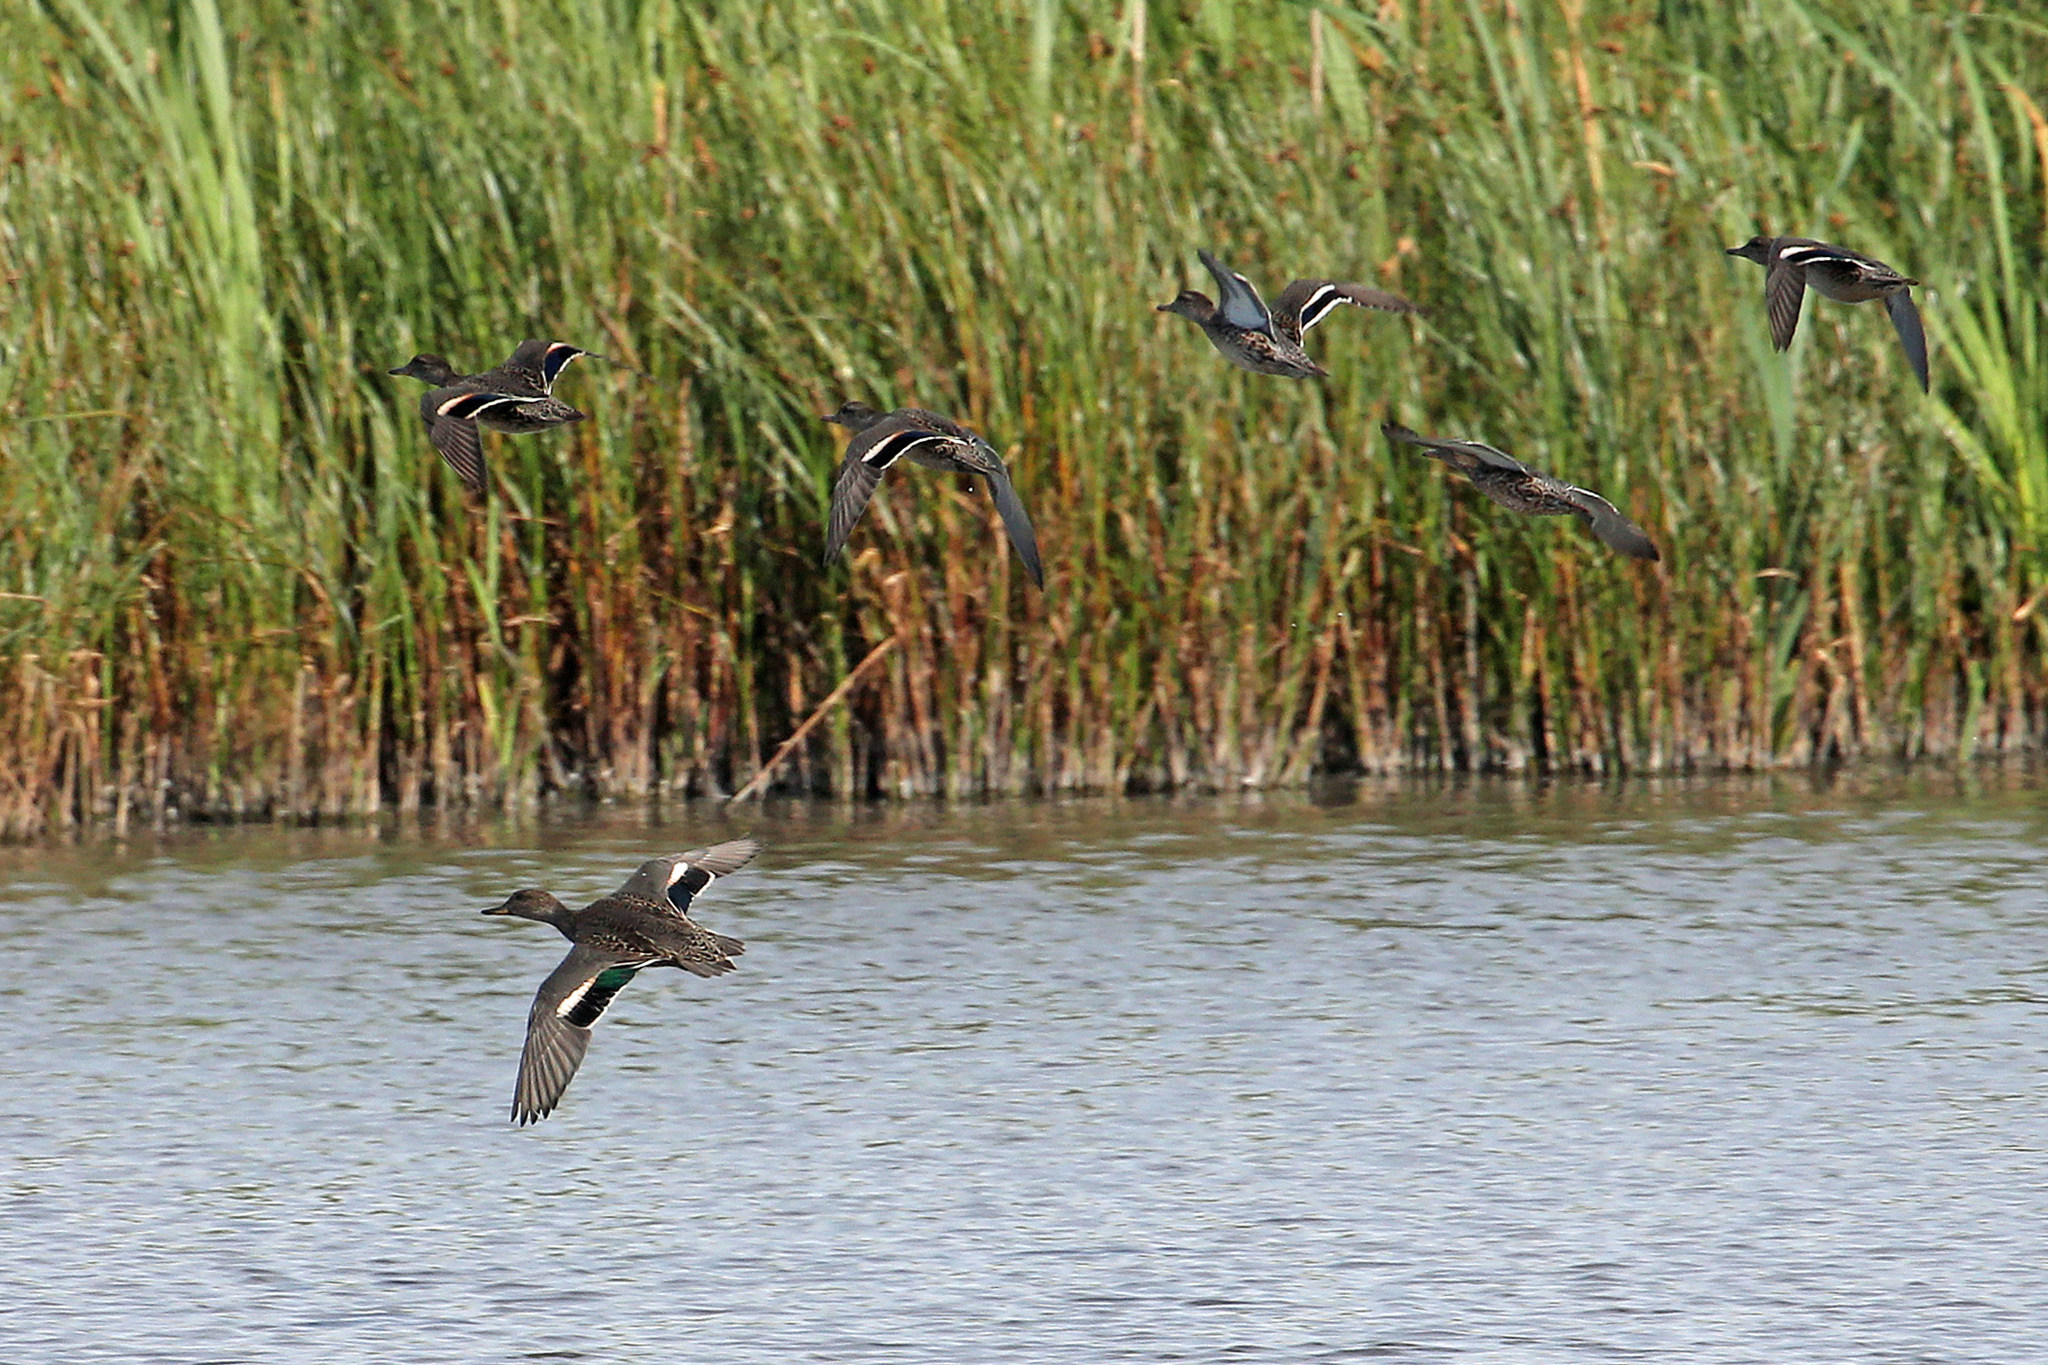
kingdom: Animalia
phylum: Chordata
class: Aves
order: Anseriformes
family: Anatidae
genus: Anas
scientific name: Anas crecca
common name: Eurasian teal
